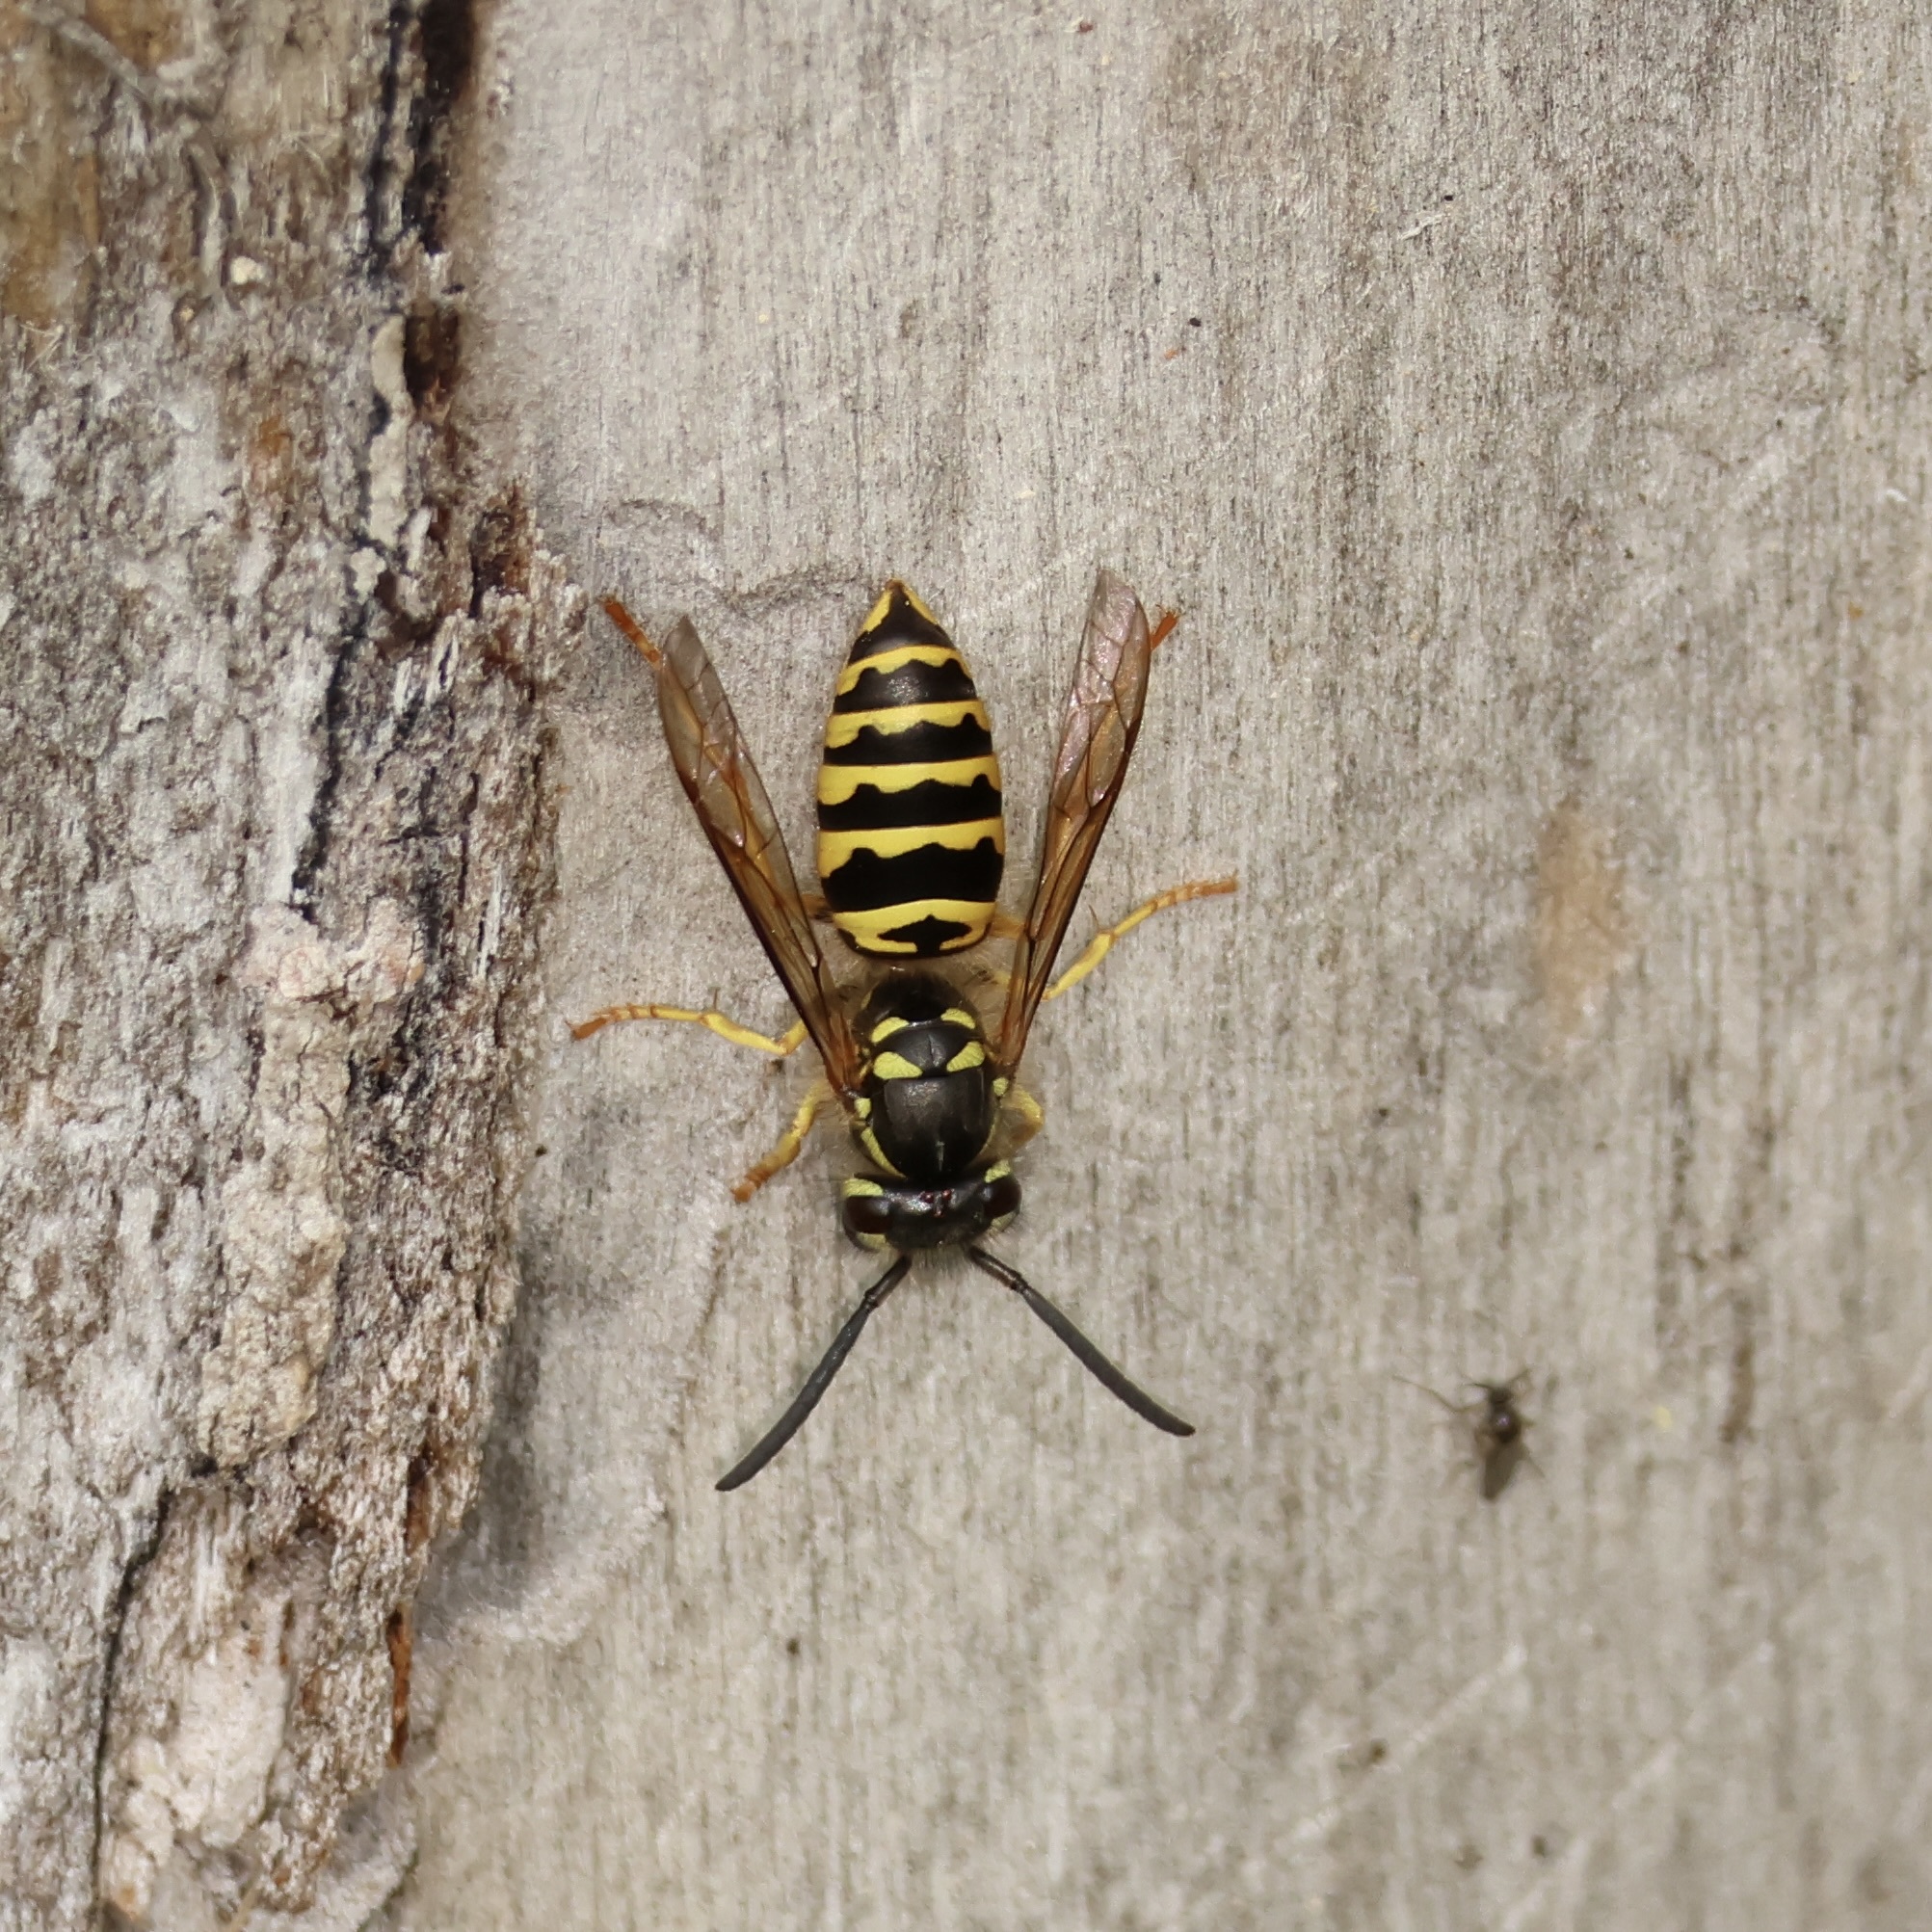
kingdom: Animalia
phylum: Arthropoda
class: Insecta
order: Hymenoptera
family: Vespidae
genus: Vespula
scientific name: Vespula maculifrons
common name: Eastern yellowjacket
